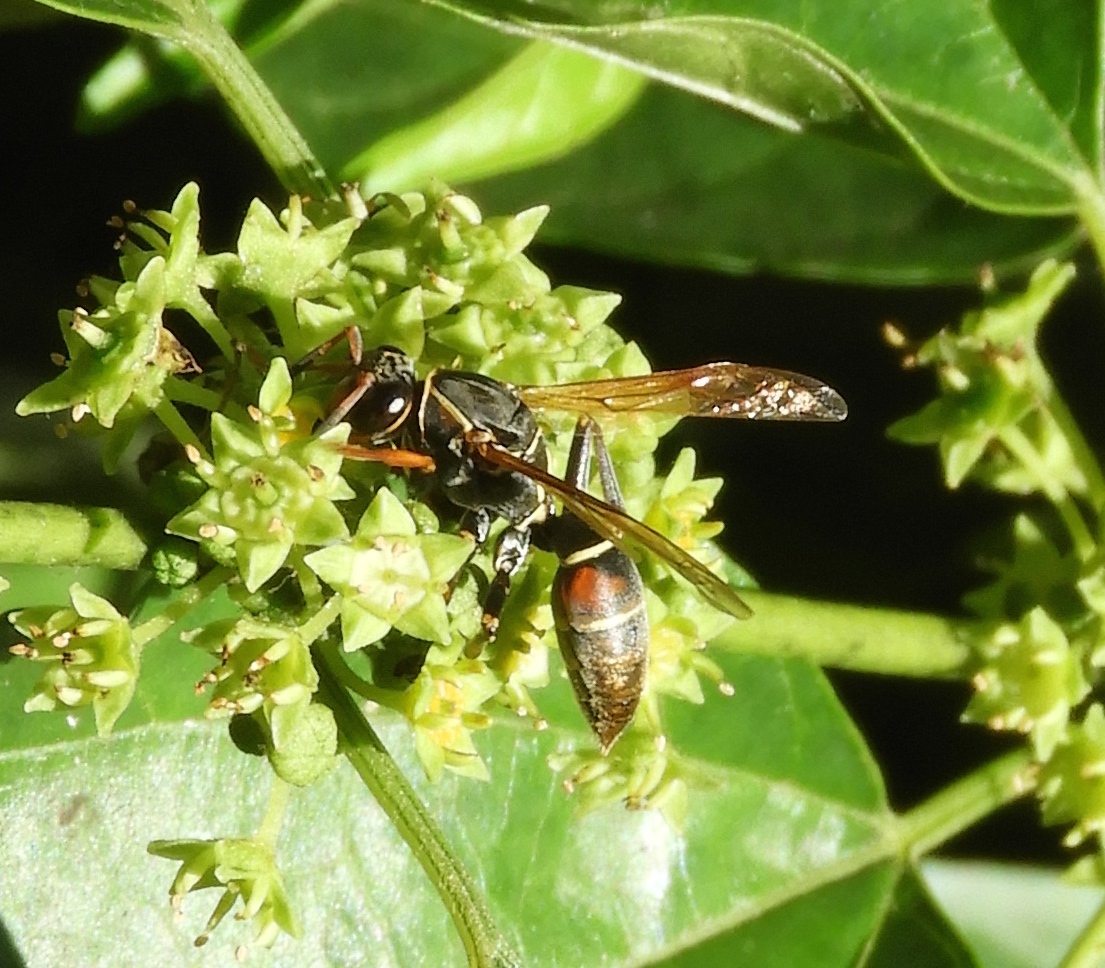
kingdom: Animalia
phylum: Arthropoda
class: Insecta
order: Hymenoptera
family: Eumenidae
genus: Polistes
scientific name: Polistes
